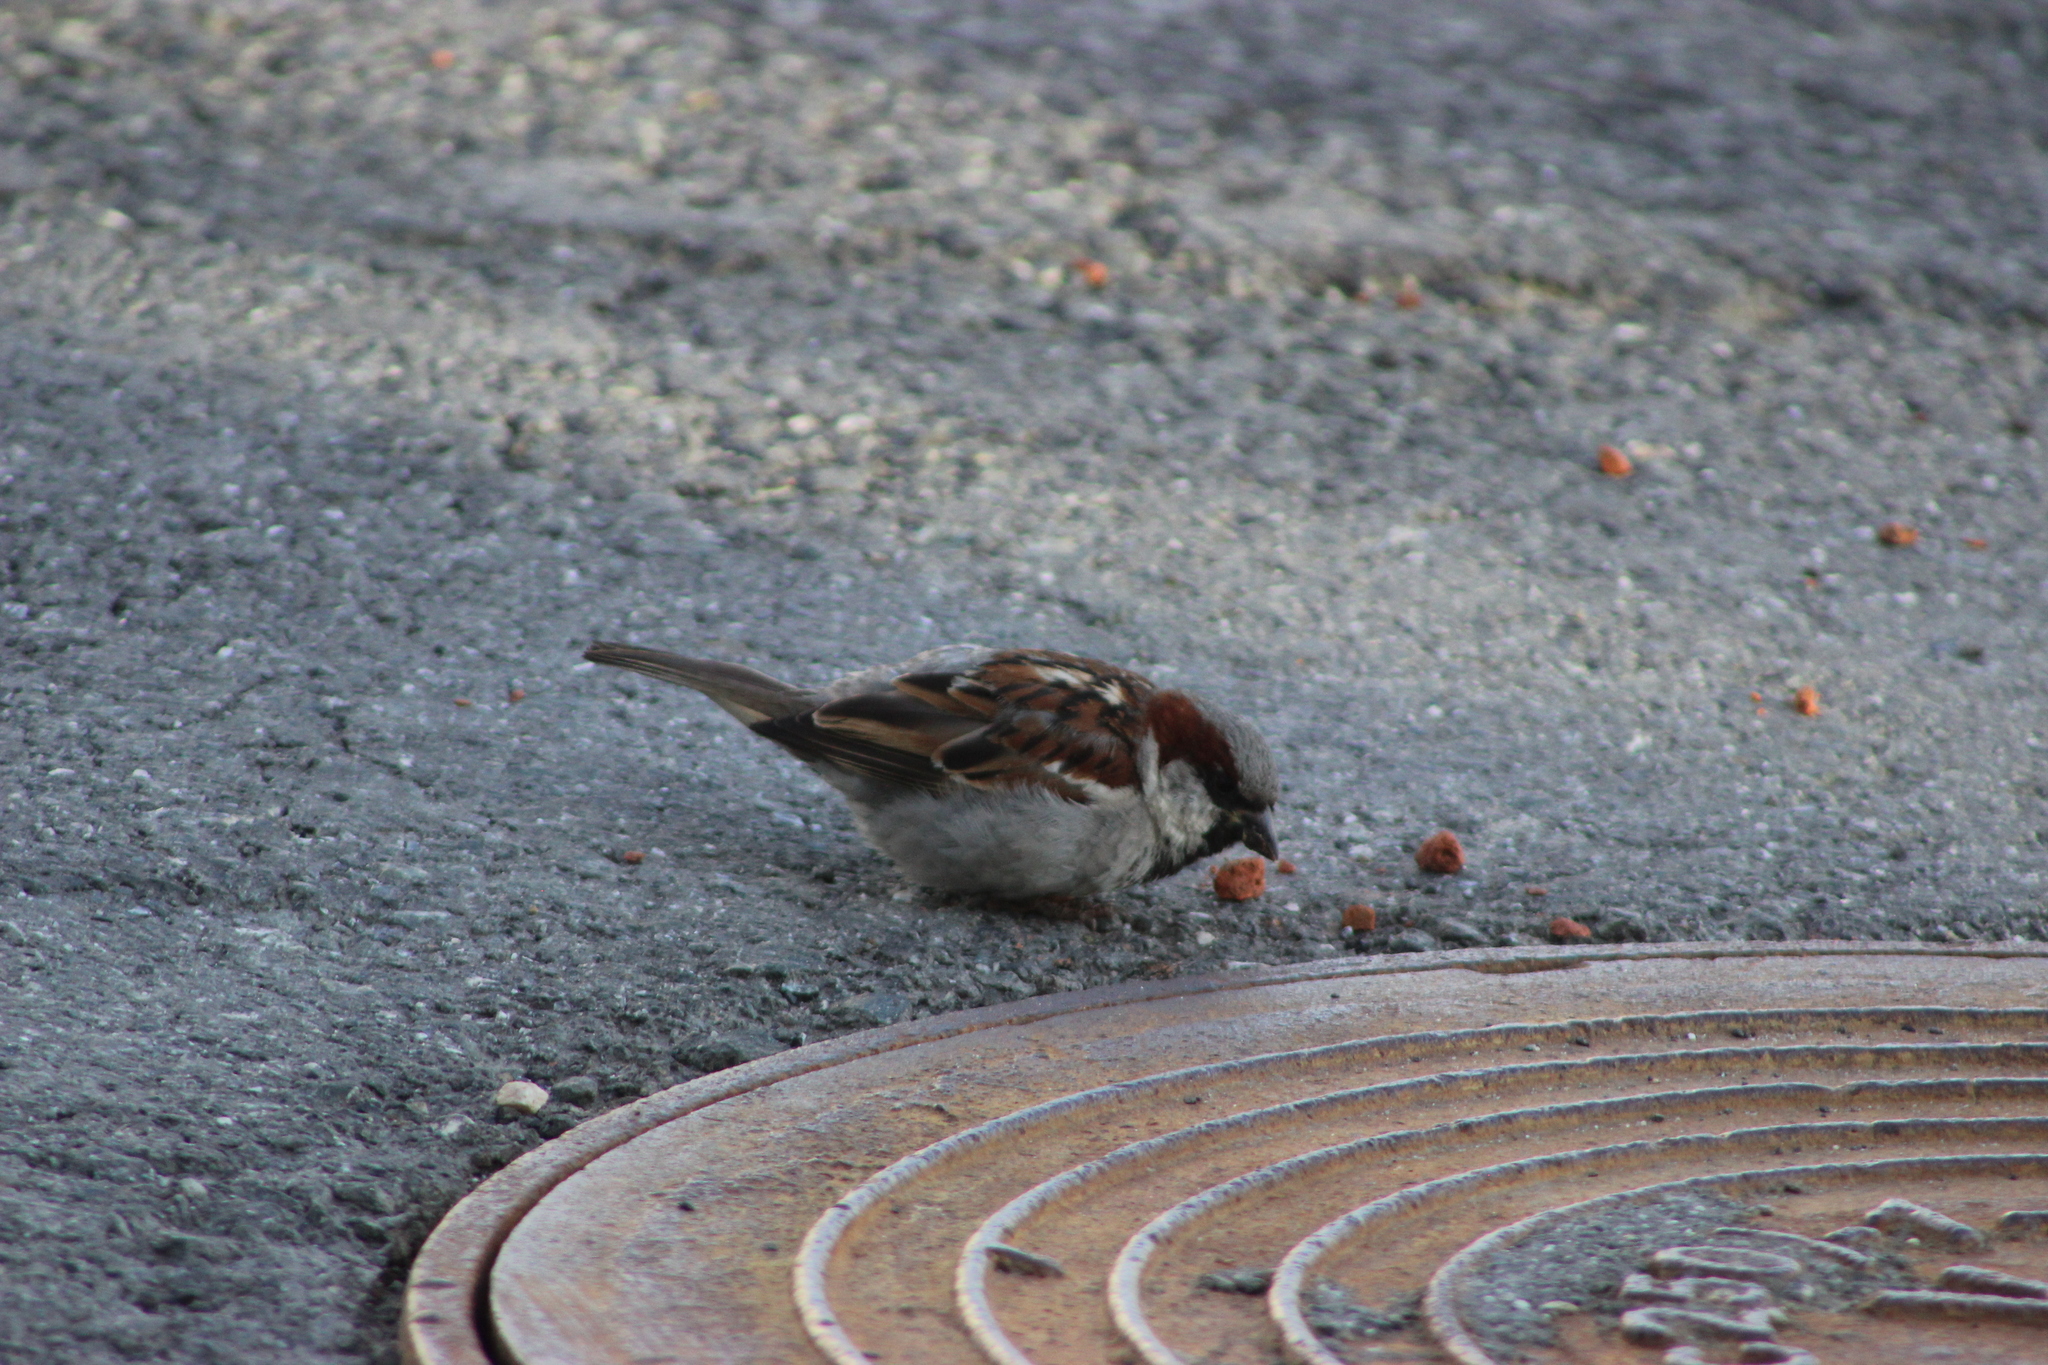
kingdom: Animalia
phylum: Chordata
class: Aves
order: Passeriformes
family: Passeridae
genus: Passer
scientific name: Passer domesticus
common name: House sparrow
